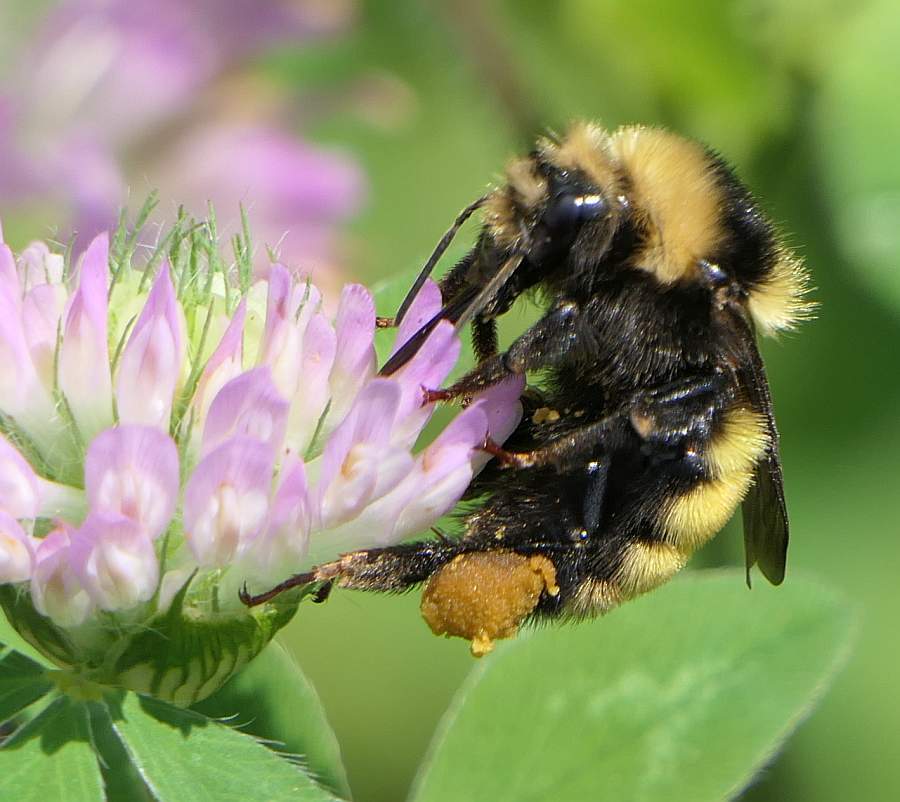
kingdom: Animalia
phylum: Arthropoda
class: Insecta
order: Hymenoptera
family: Apidae
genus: Bombus
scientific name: Bombus borealis
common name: Northern amber bumble bee
